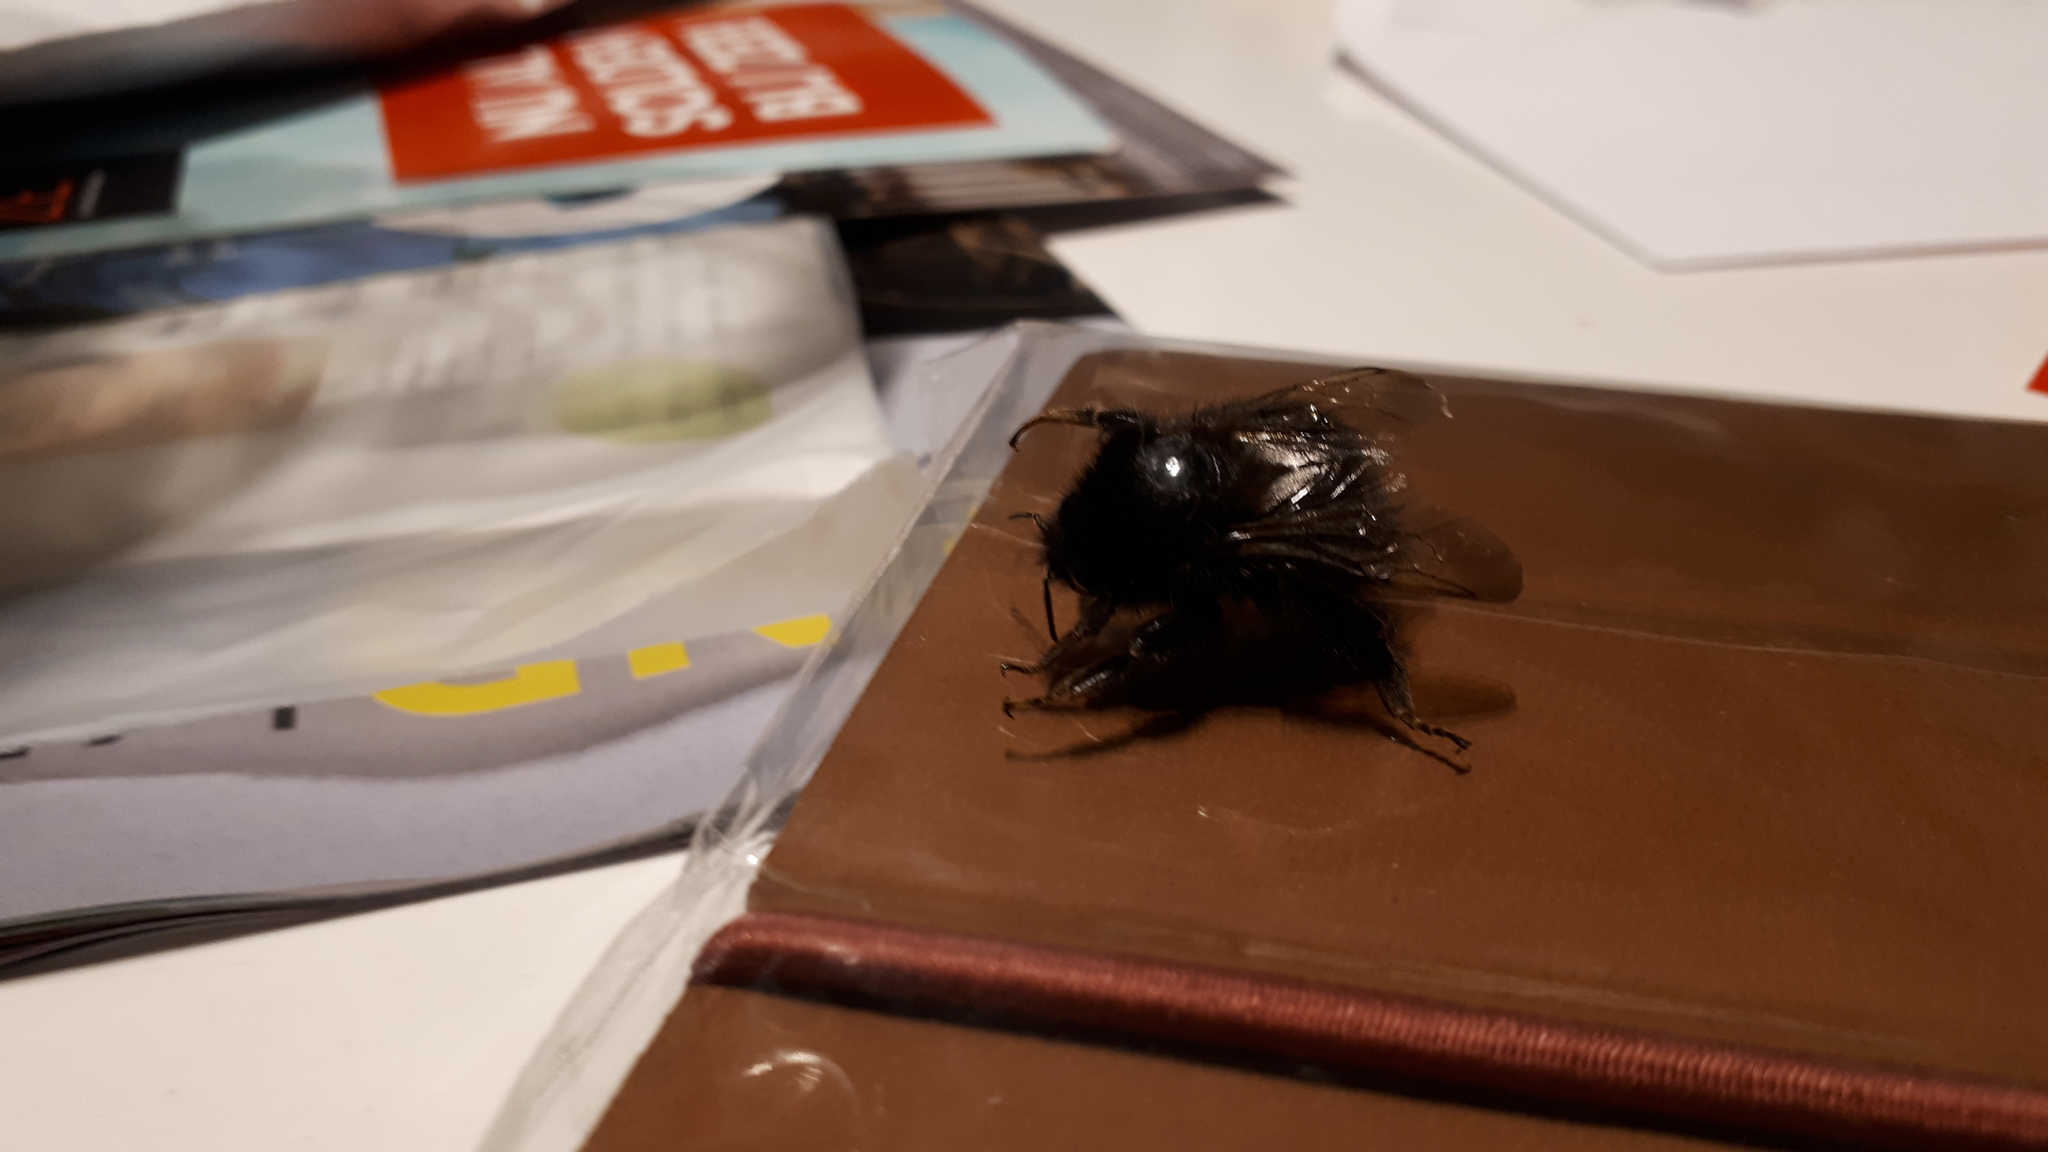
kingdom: Animalia
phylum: Arthropoda
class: Insecta
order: Hymenoptera
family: Apidae
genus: Bombus
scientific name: Bombus hypnorum
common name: New garden bumblebee
